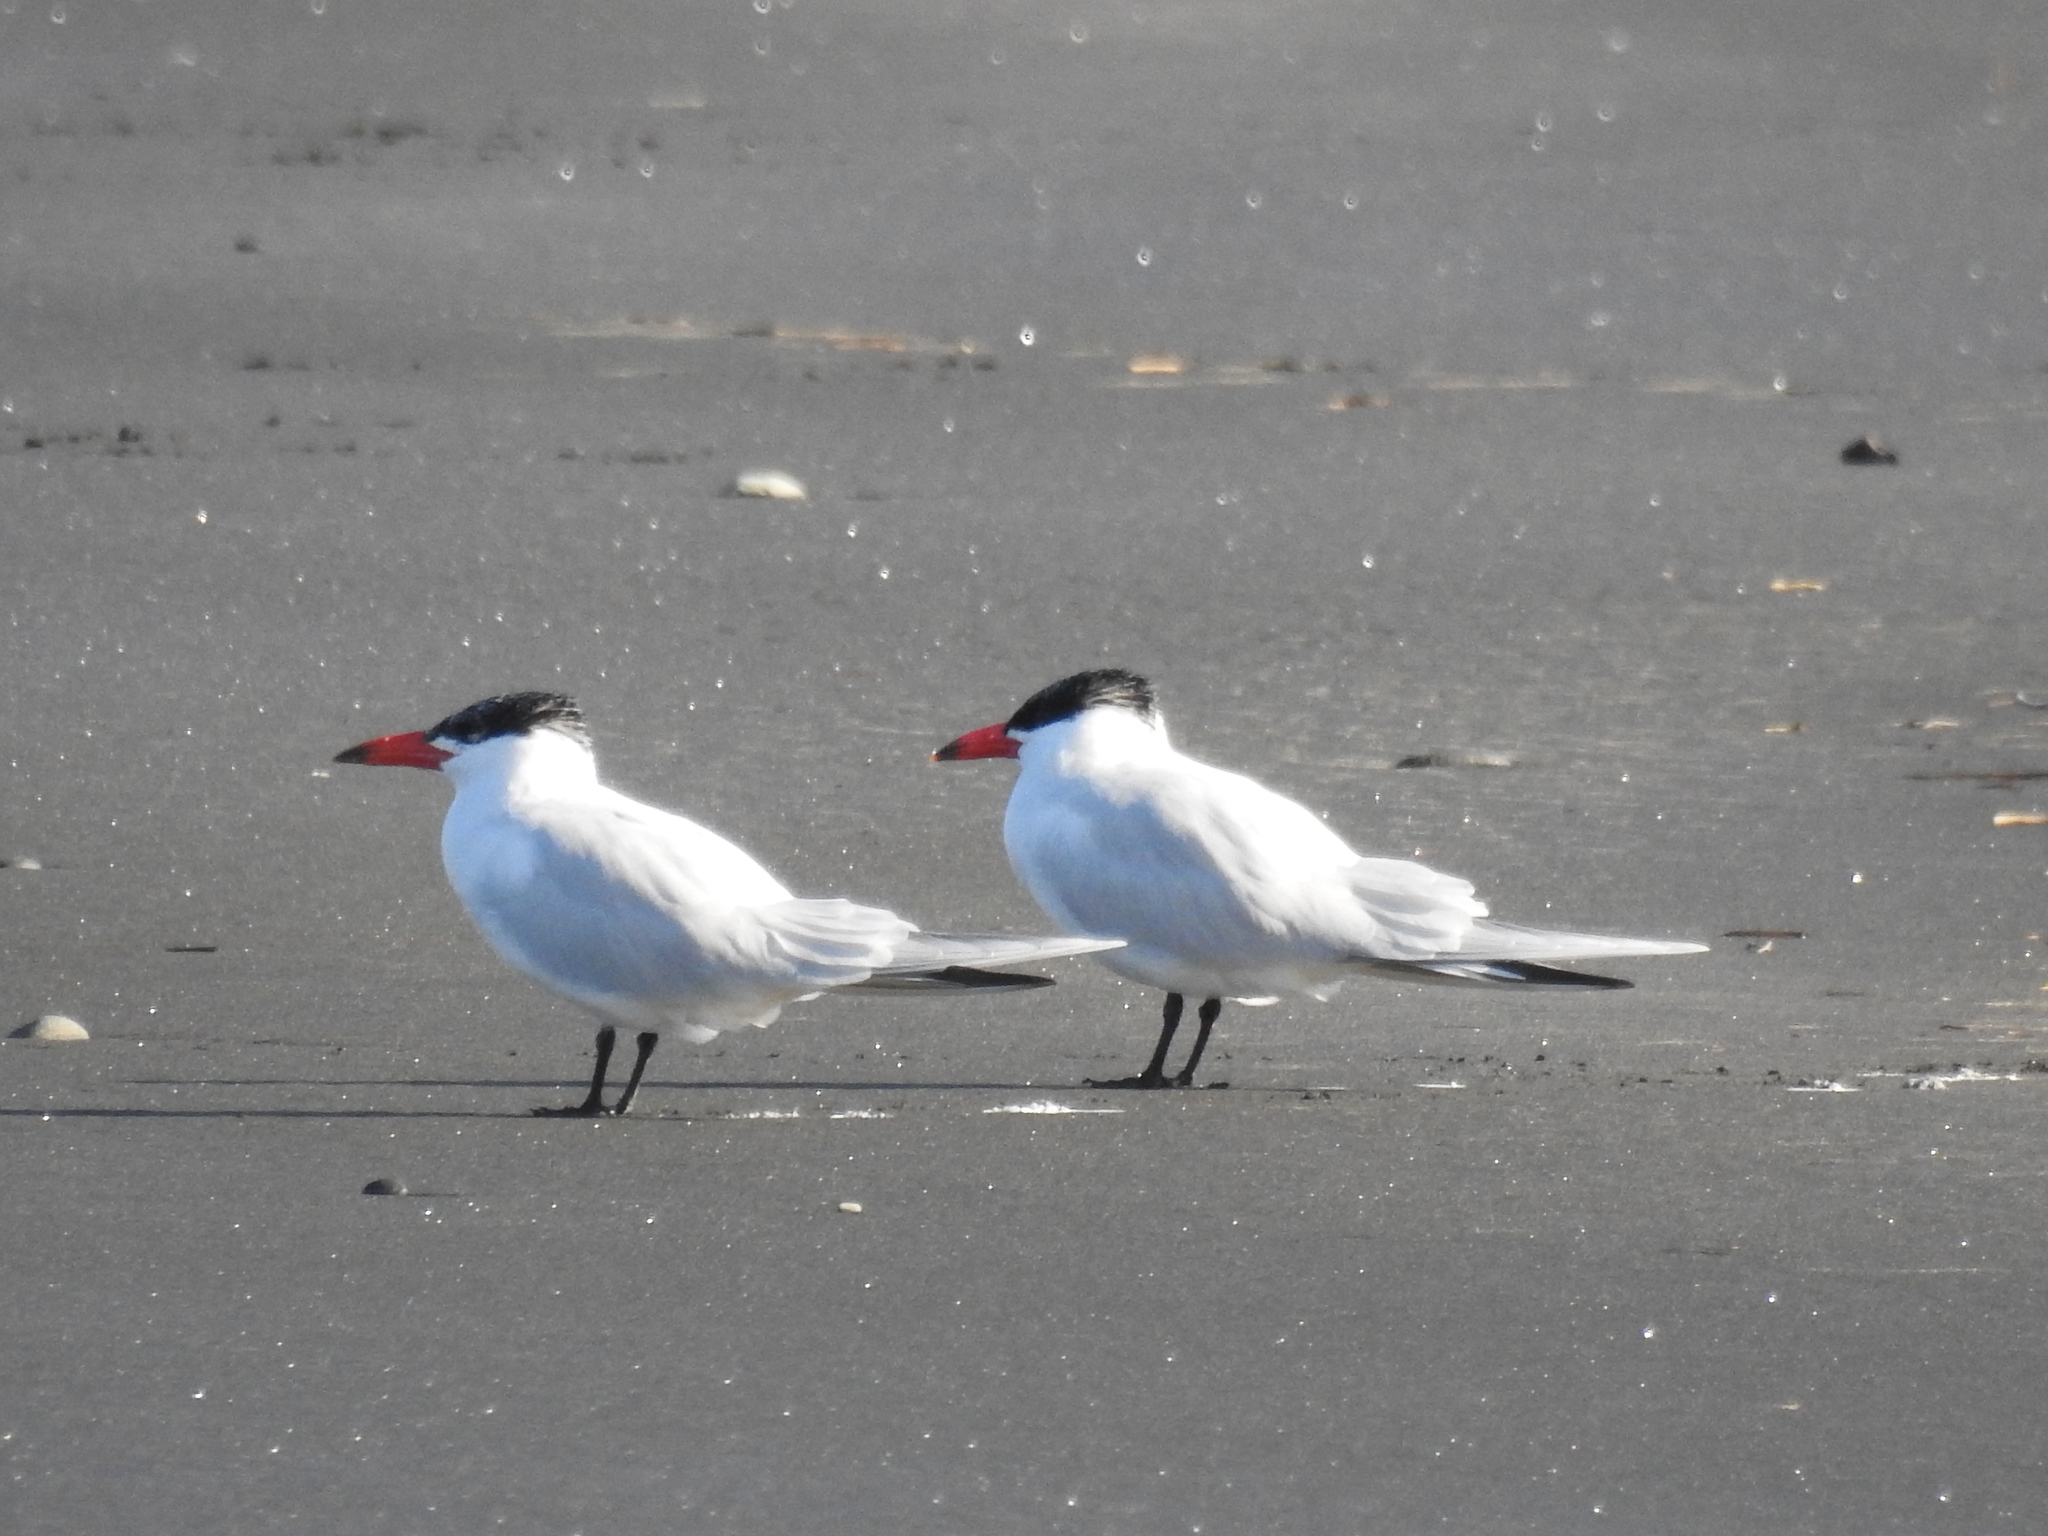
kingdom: Animalia
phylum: Chordata
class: Aves
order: Charadriiformes
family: Laridae
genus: Hydroprogne
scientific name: Hydroprogne caspia
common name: Caspian tern
